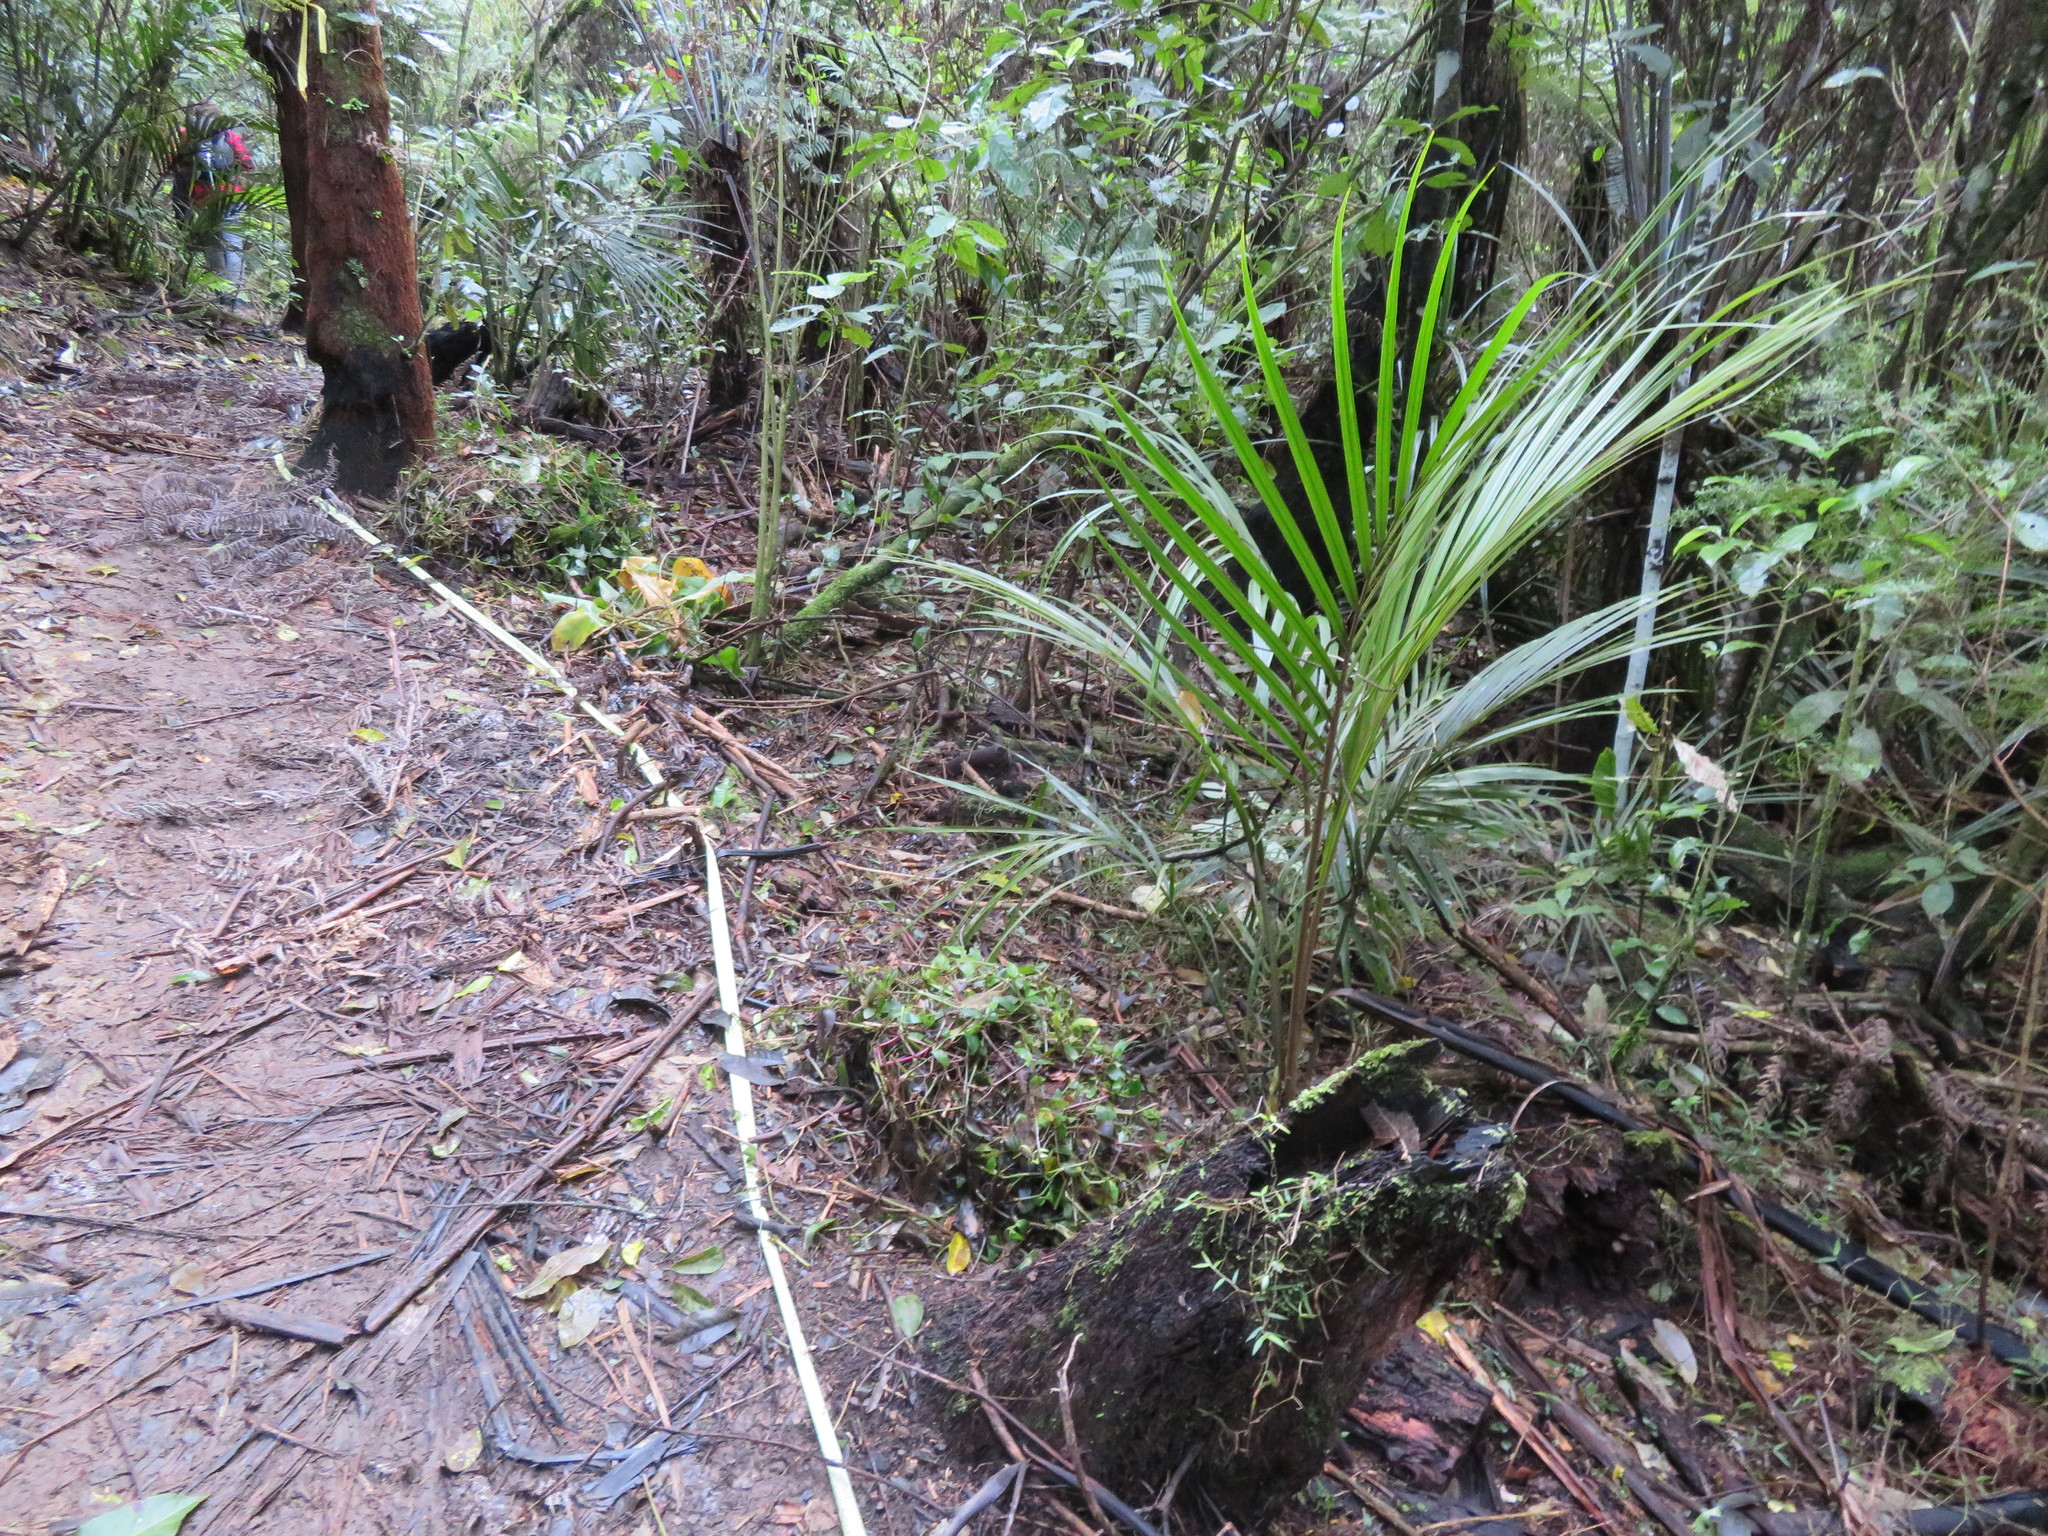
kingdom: Plantae
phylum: Tracheophyta
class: Liliopsida
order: Commelinales
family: Commelinaceae
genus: Tradescantia
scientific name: Tradescantia fluminensis
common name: Wandering-jew
